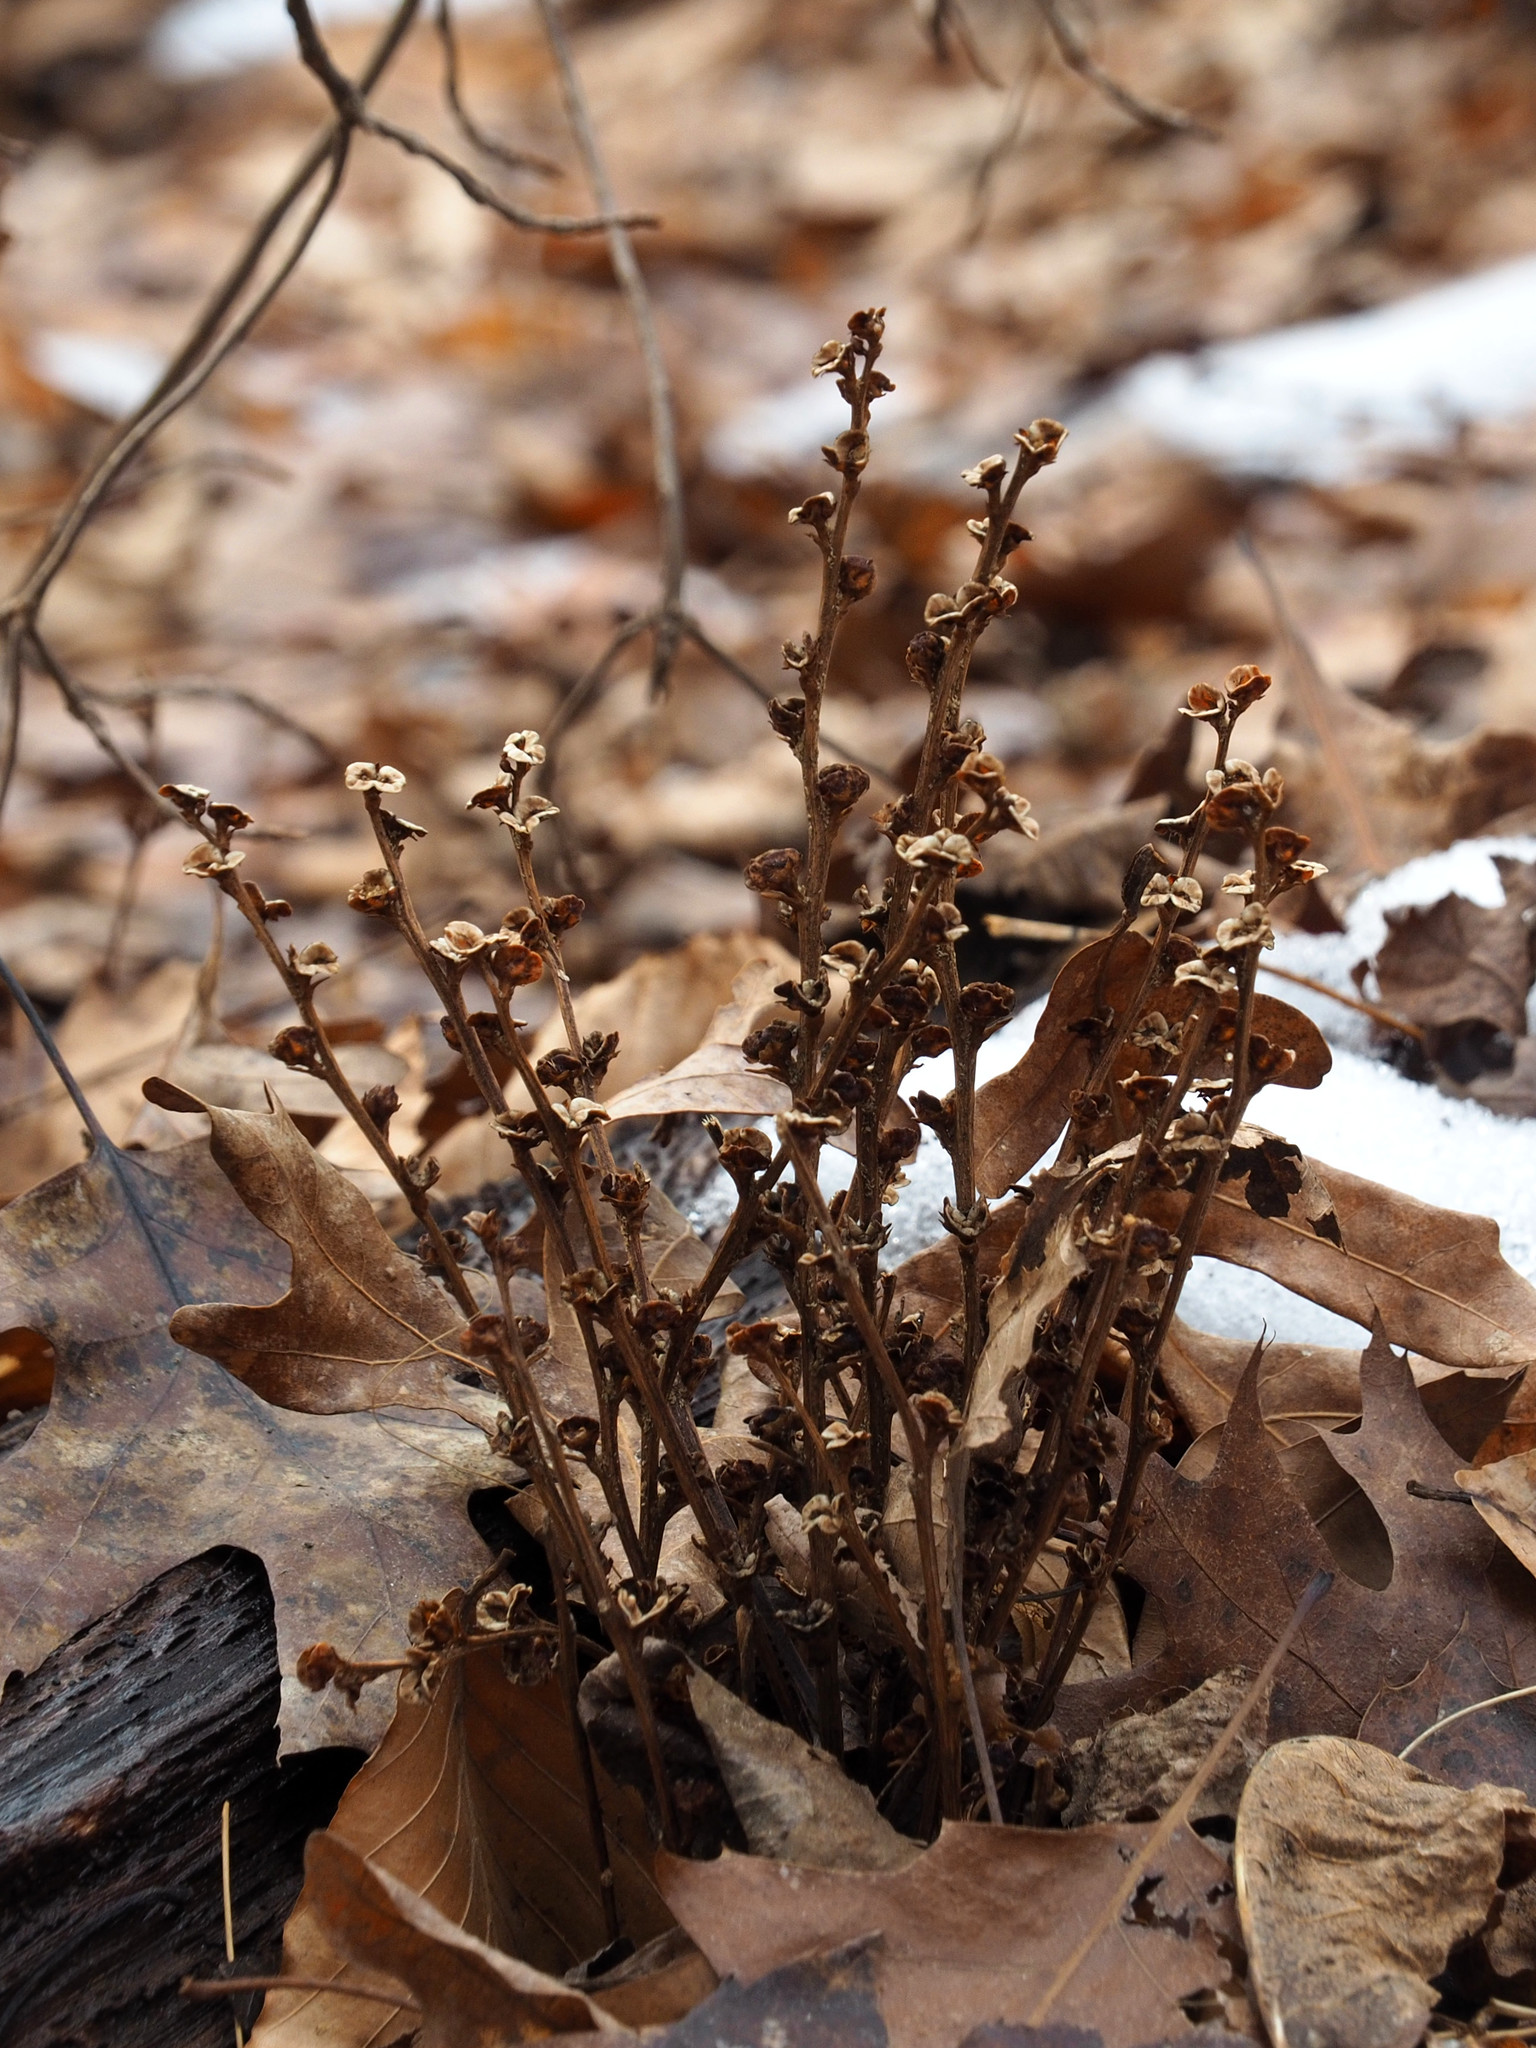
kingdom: Plantae
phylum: Tracheophyta
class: Magnoliopsida
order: Lamiales
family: Orobanchaceae
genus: Epifagus
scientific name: Epifagus virginiana
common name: Beechdrops
